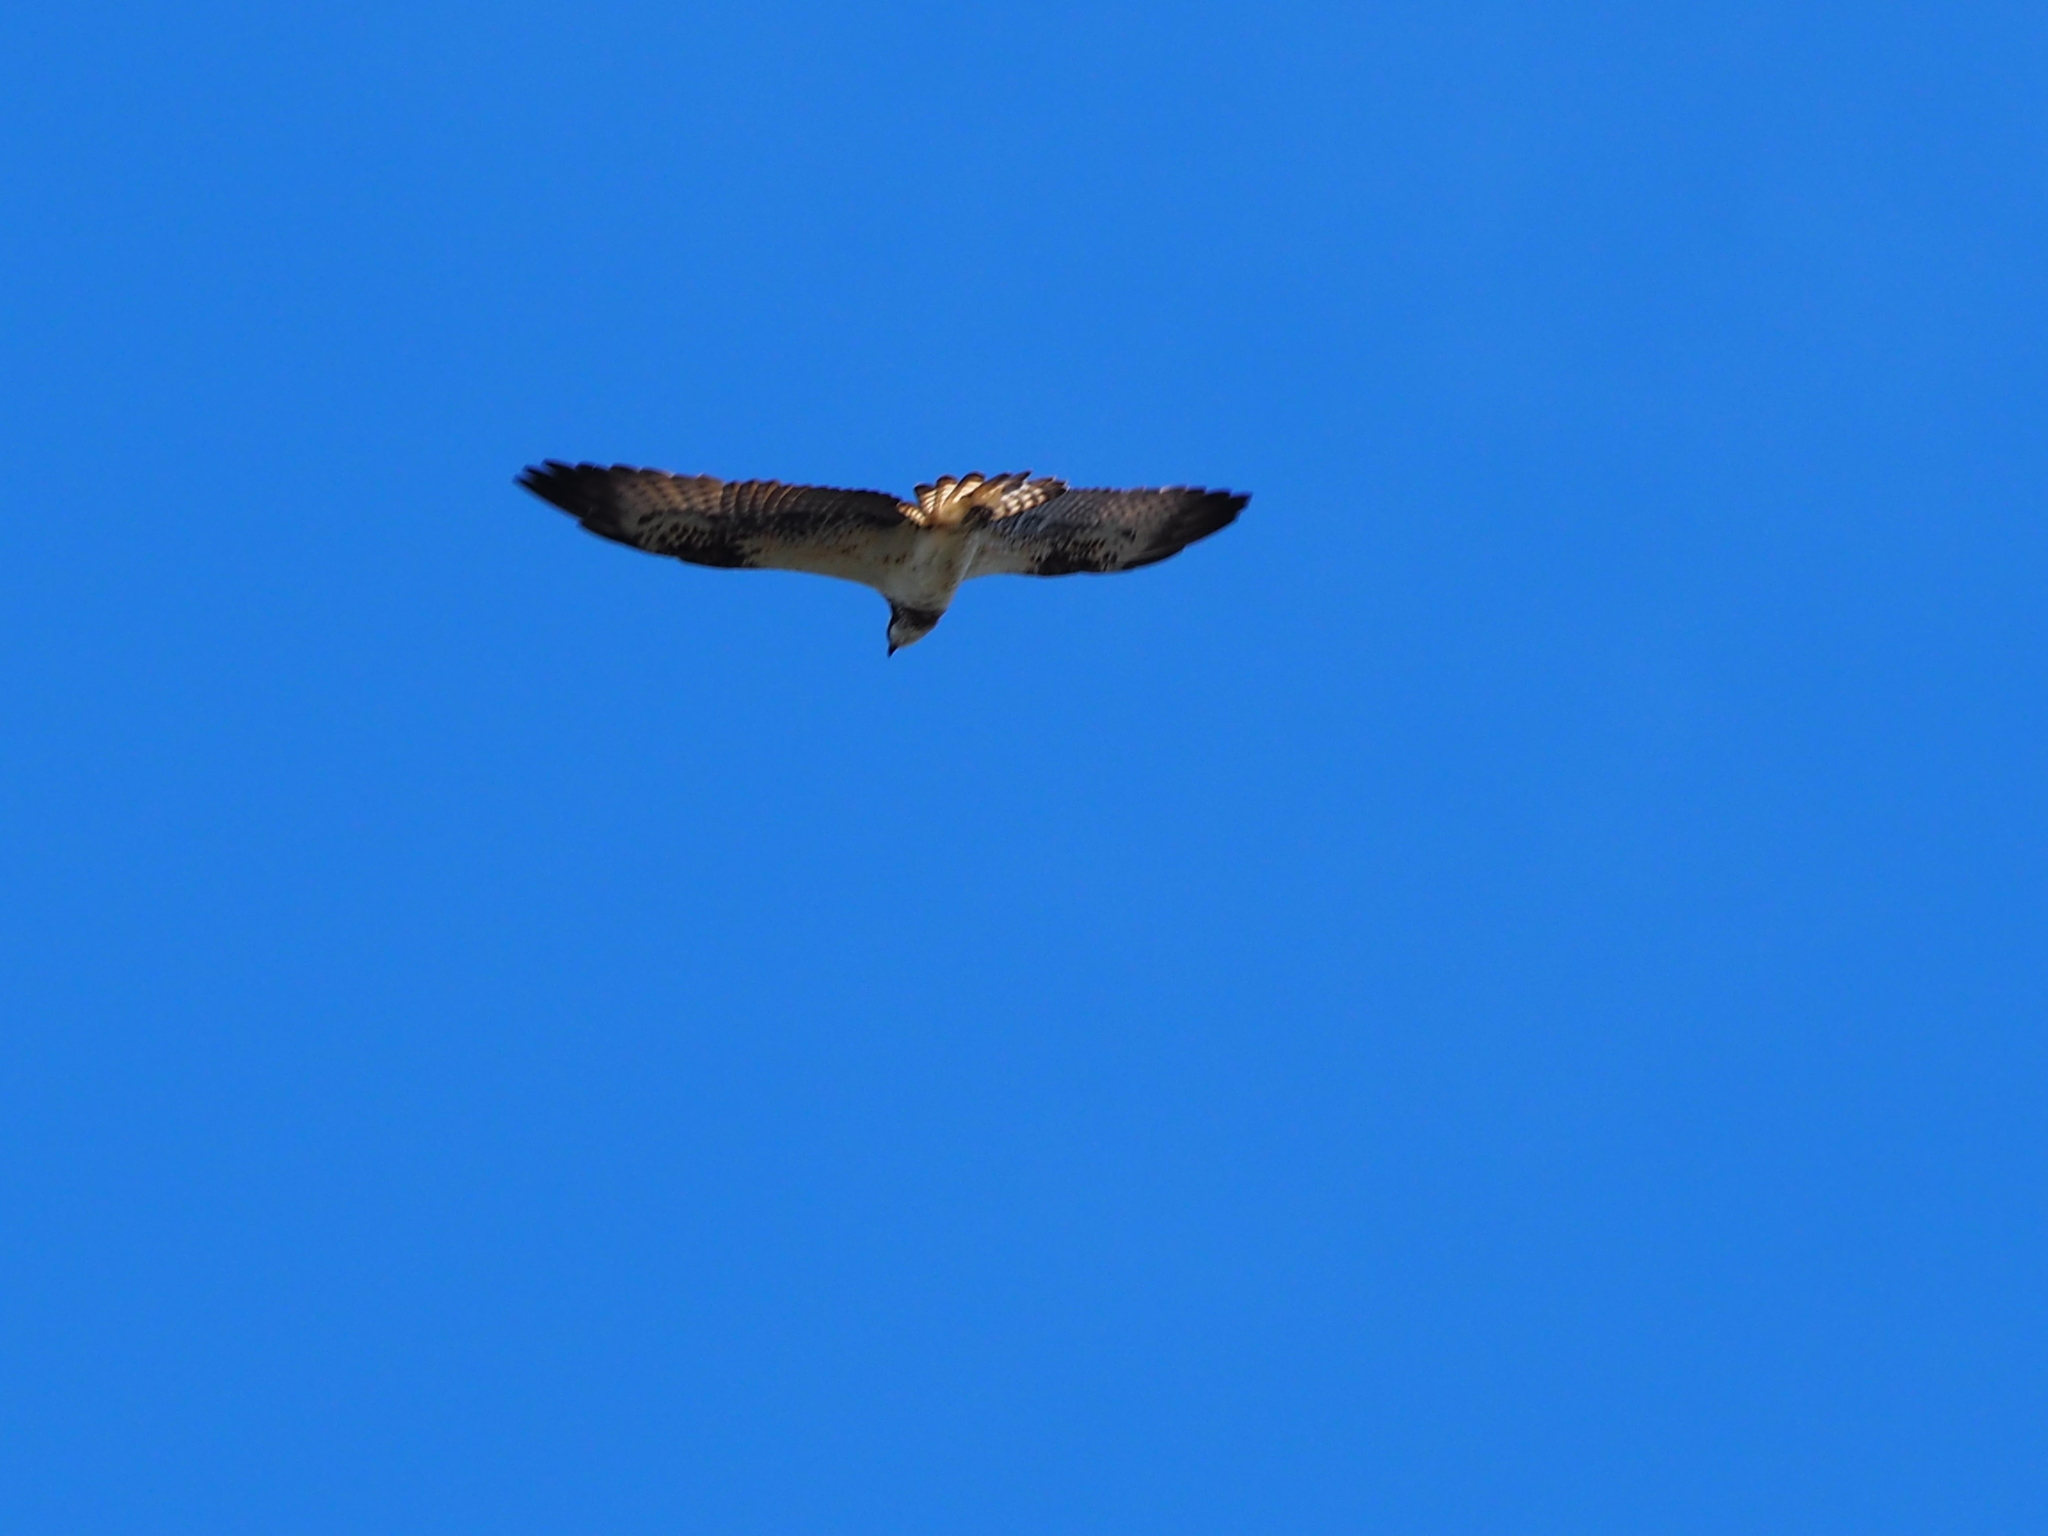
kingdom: Animalia
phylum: Chordata
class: Aves
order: Accipitriformes
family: Pandionidae
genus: Pandion
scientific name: Pandion haliaetus
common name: Osprey
